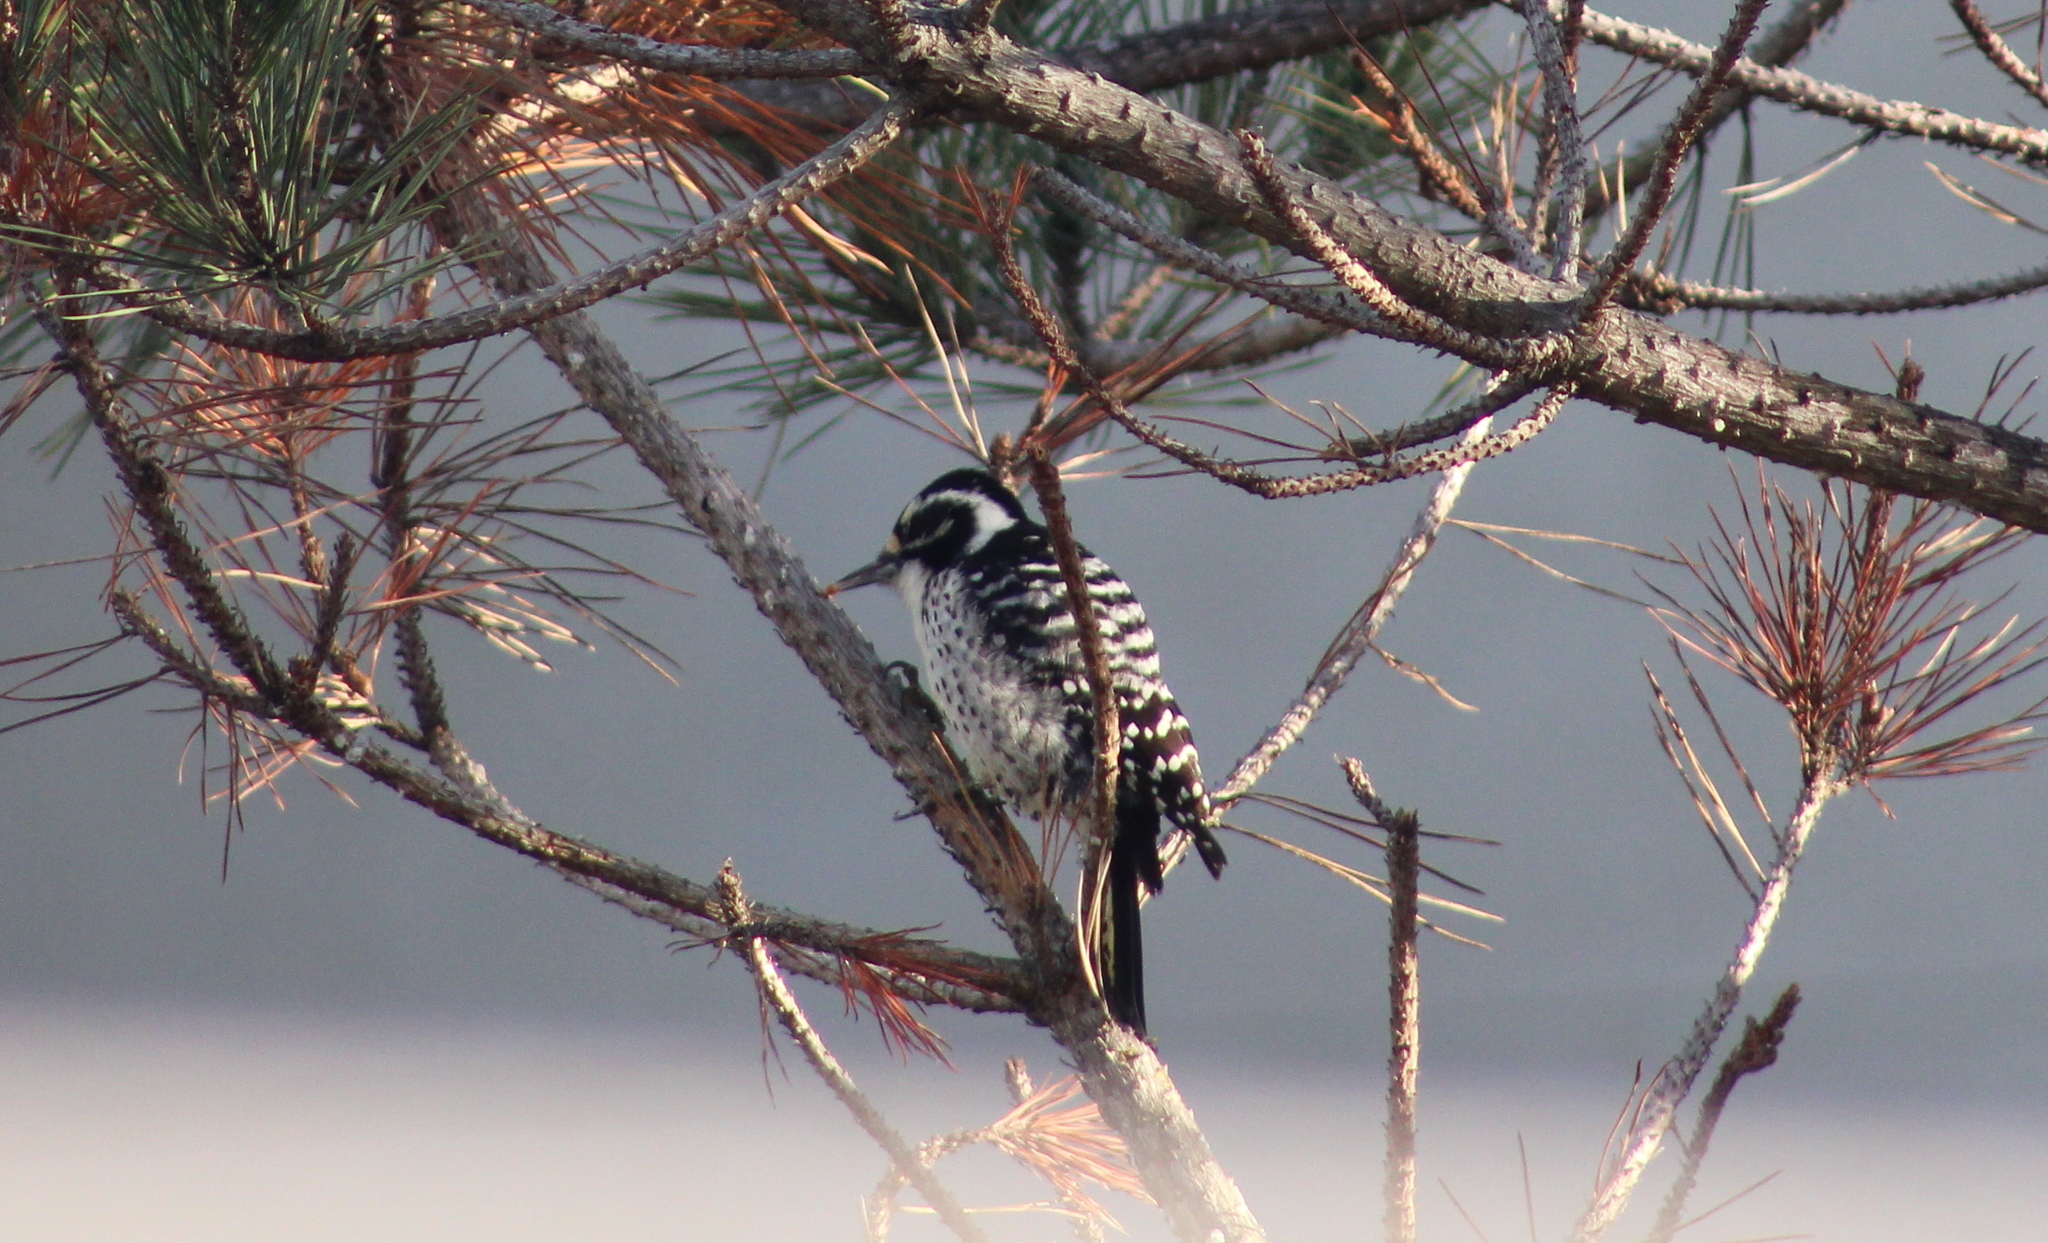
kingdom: Animalia
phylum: Chordata
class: Aves
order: Piciformes
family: Picidae
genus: Dryobates
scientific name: Dryobates nuttallii
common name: Nuttall's woodpecker
